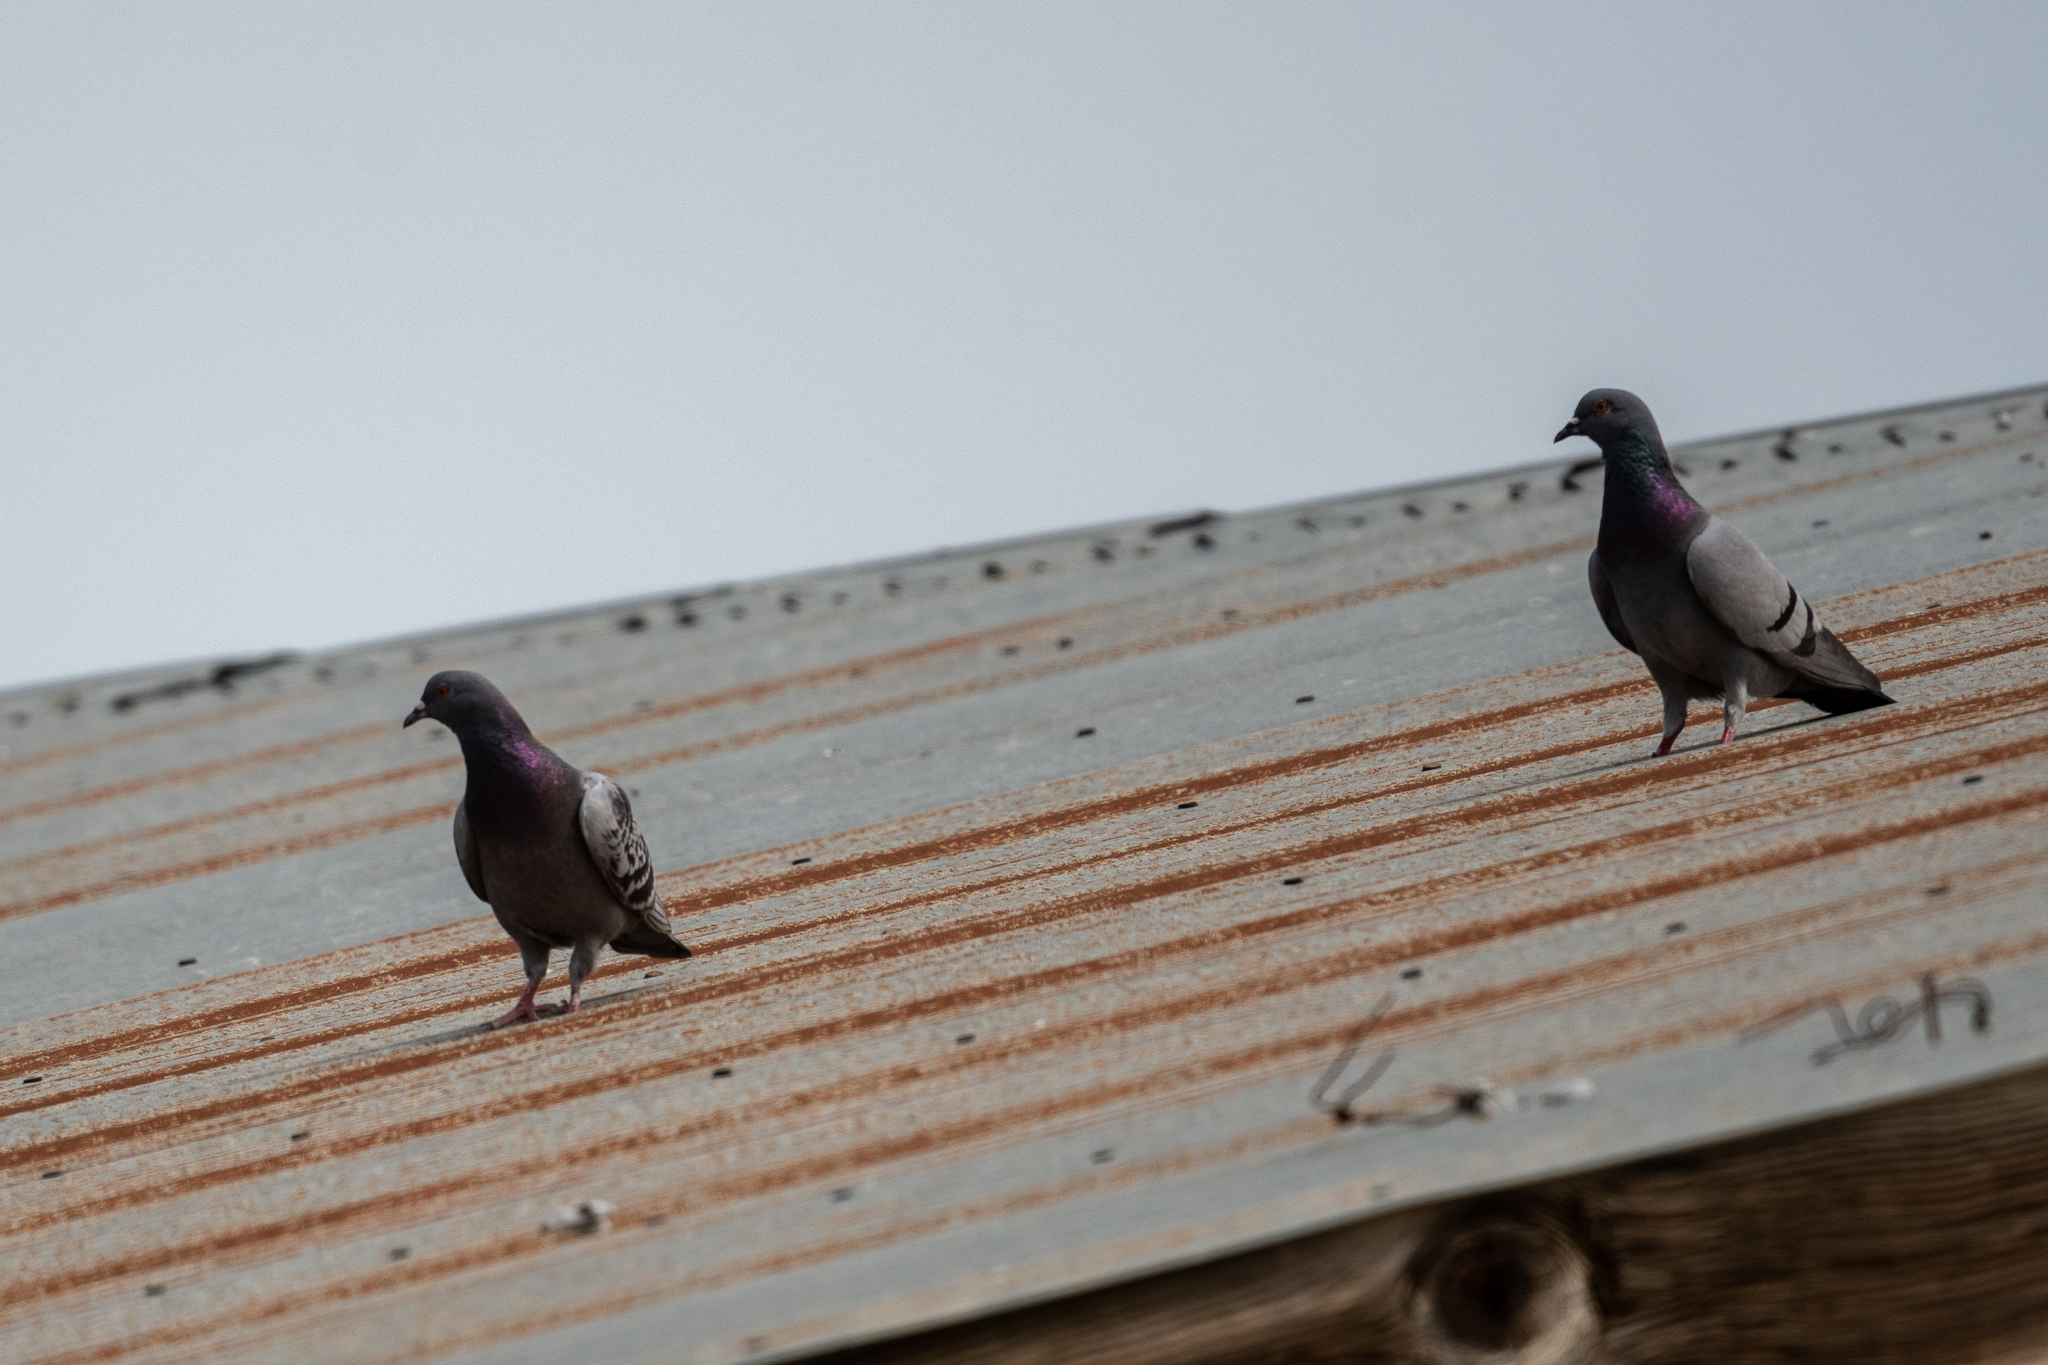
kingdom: Animalia
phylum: Chordata
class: Aves
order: Columbiformes
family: Columbidae
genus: Columba
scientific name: Columba livia
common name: Rock pigeon
